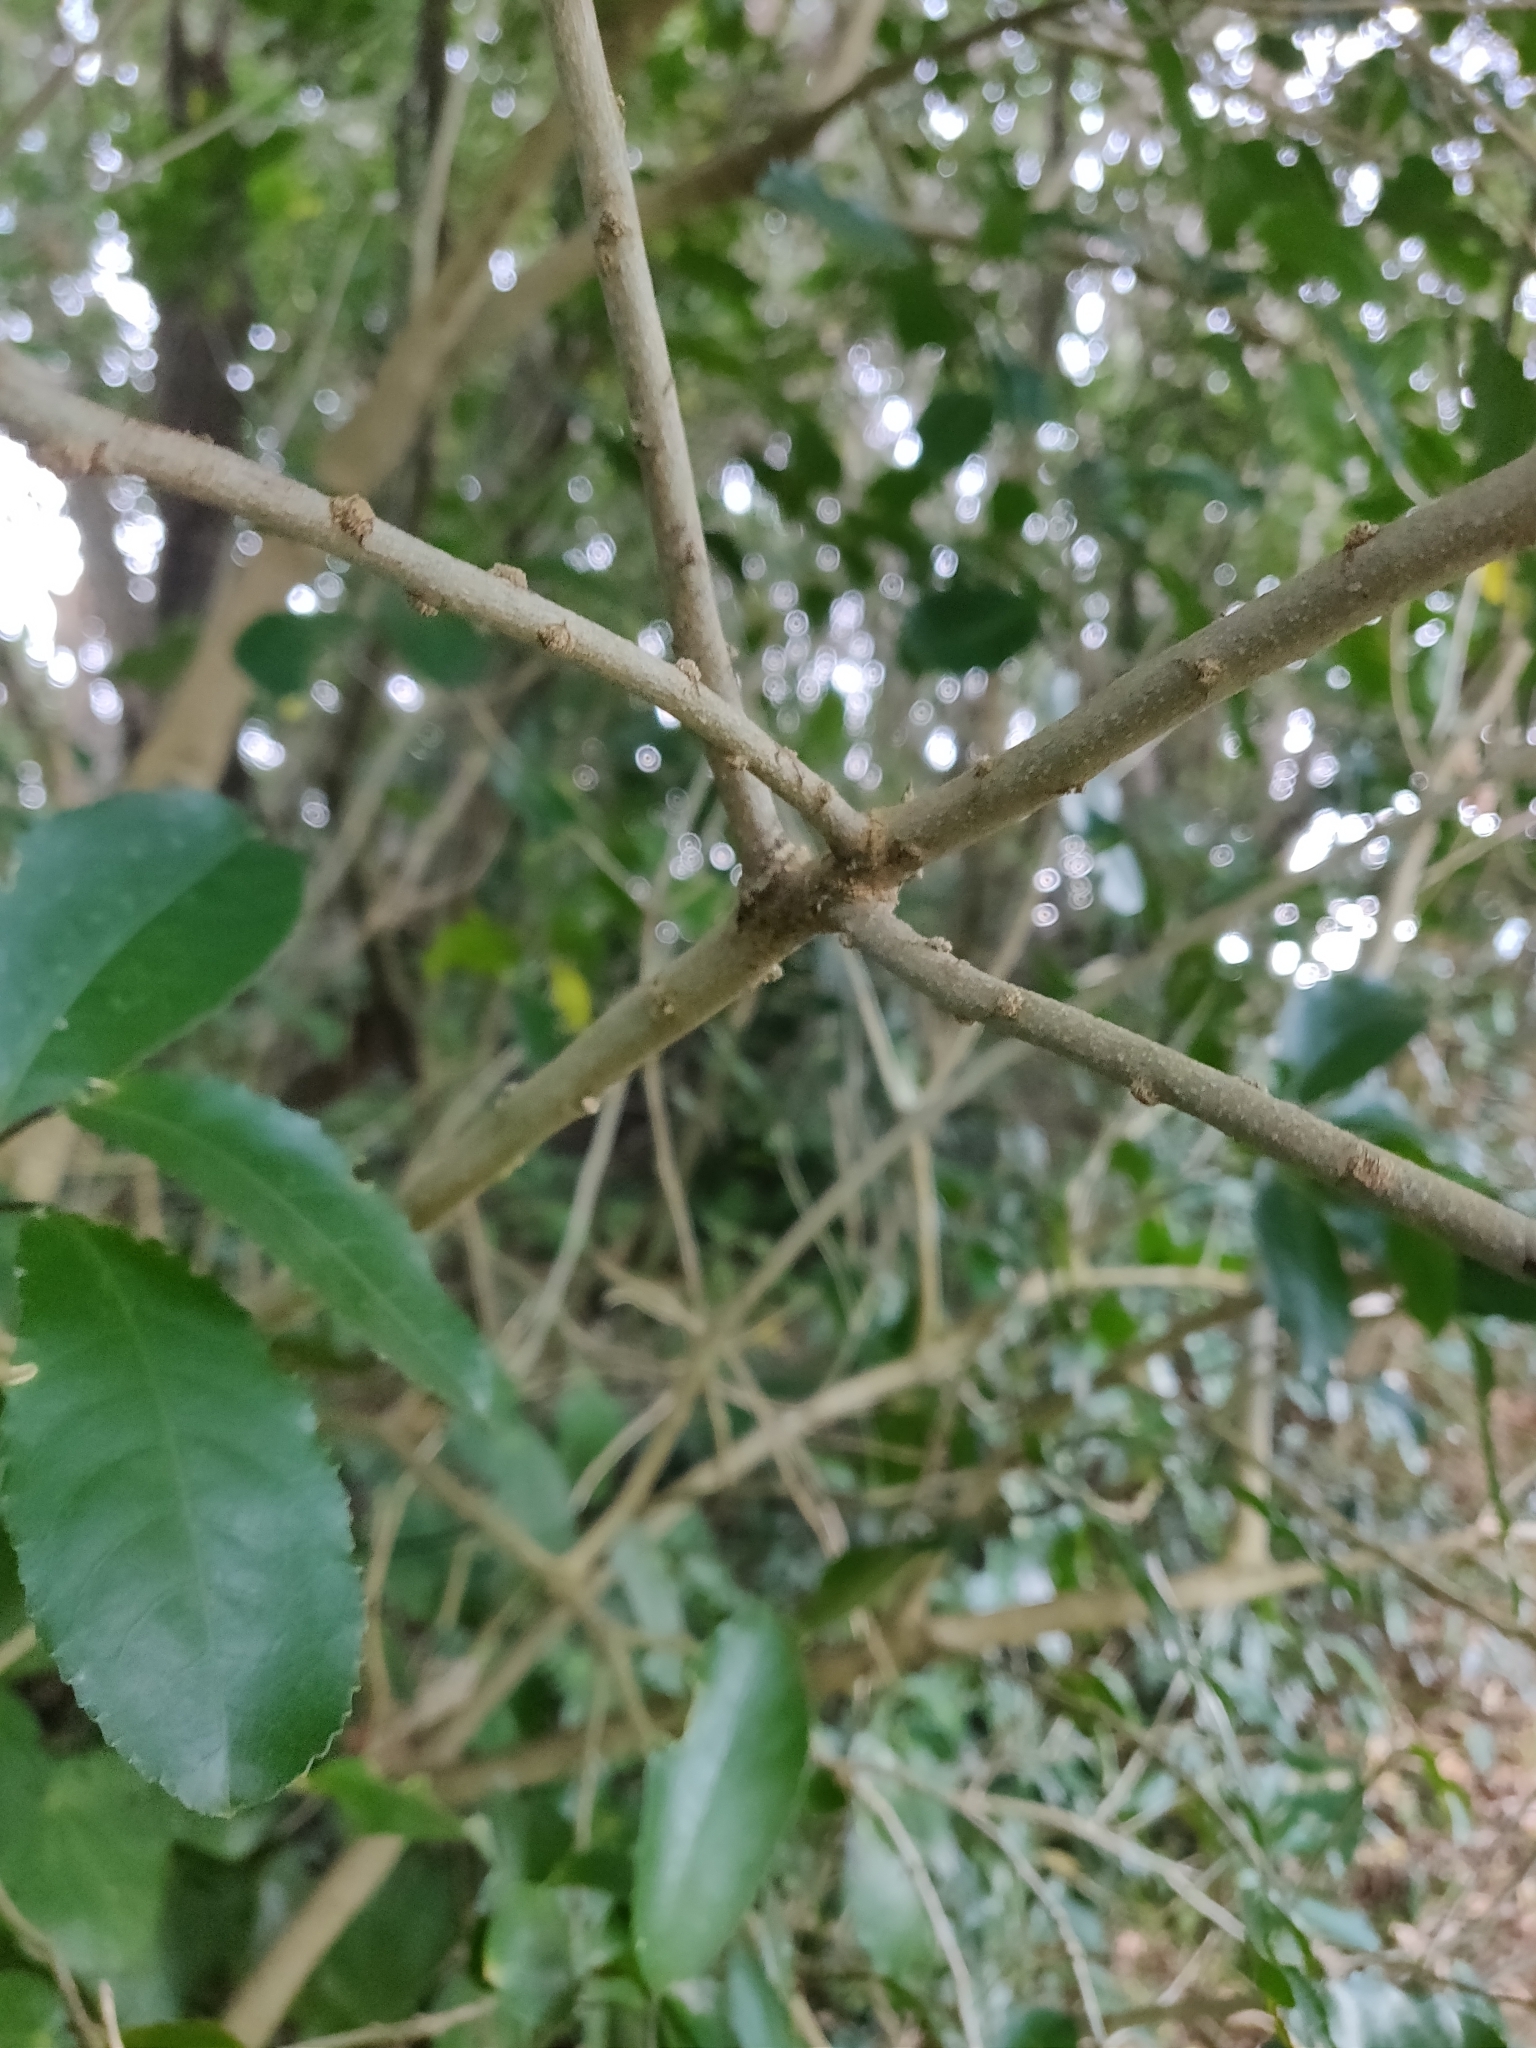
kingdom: Plantae
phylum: Tracheophyta
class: Magnoliopsida
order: Malpighiales
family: Violaceae
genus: Melicytus
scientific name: Melicytus ramiflorus
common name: Mahoe
